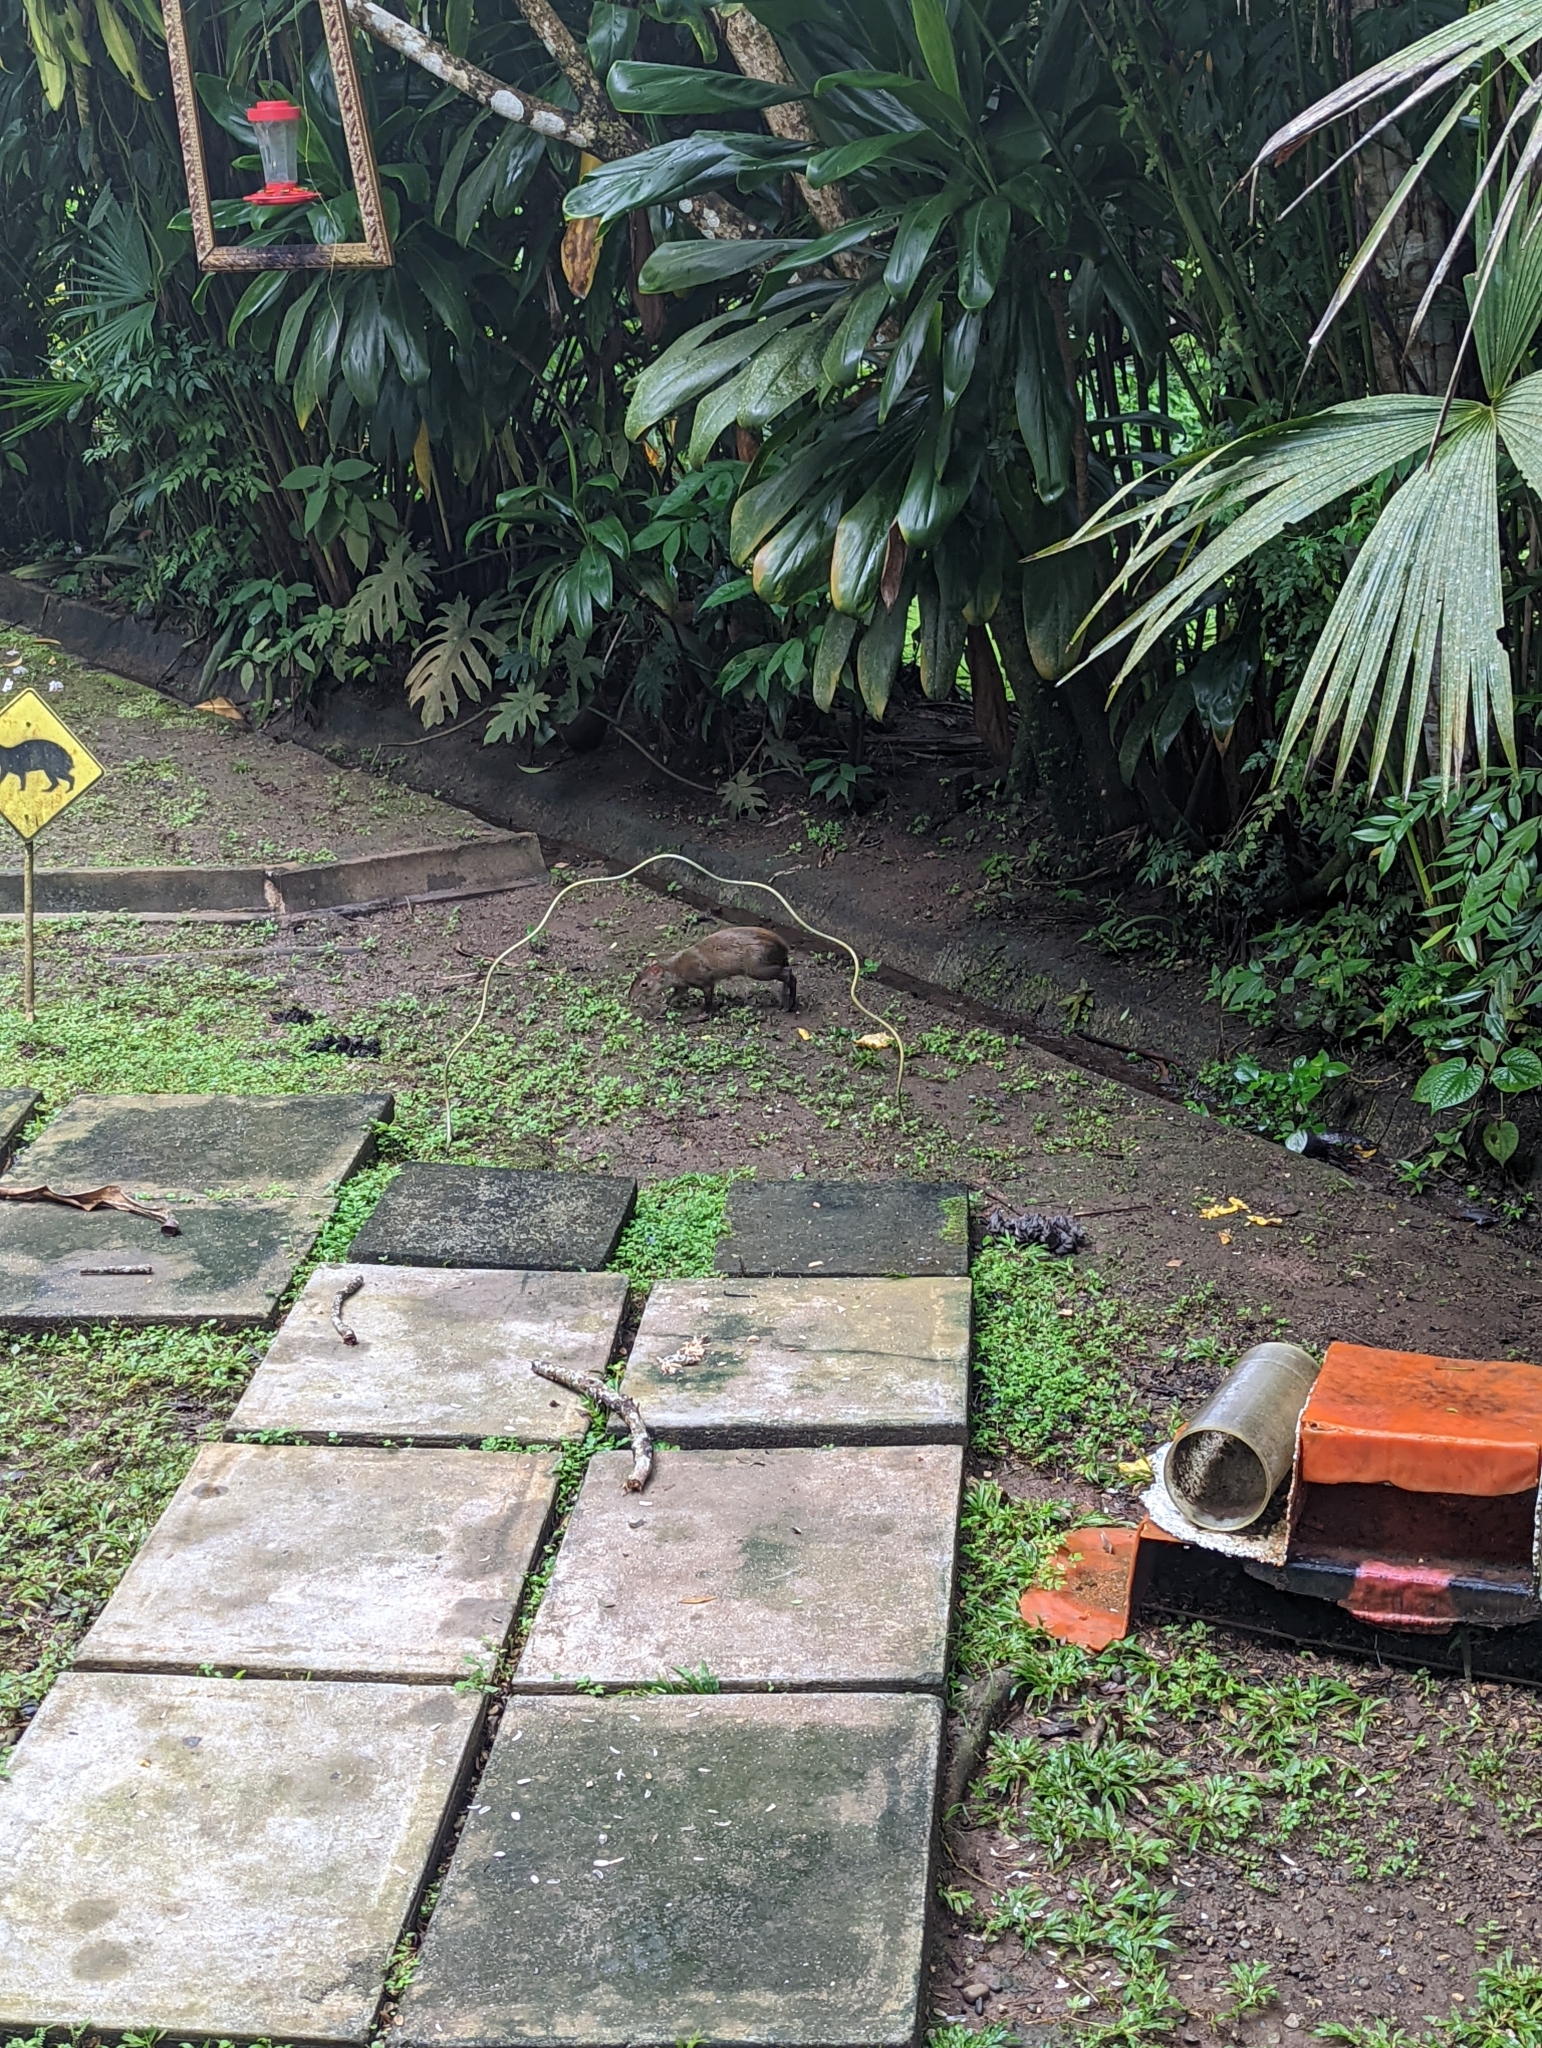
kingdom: Animalia
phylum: Chordata
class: Mammalia
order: Rodentia
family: Dasyproctidae
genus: Dasyprocta
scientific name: Dasyprocta punctata
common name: Central american agouti
